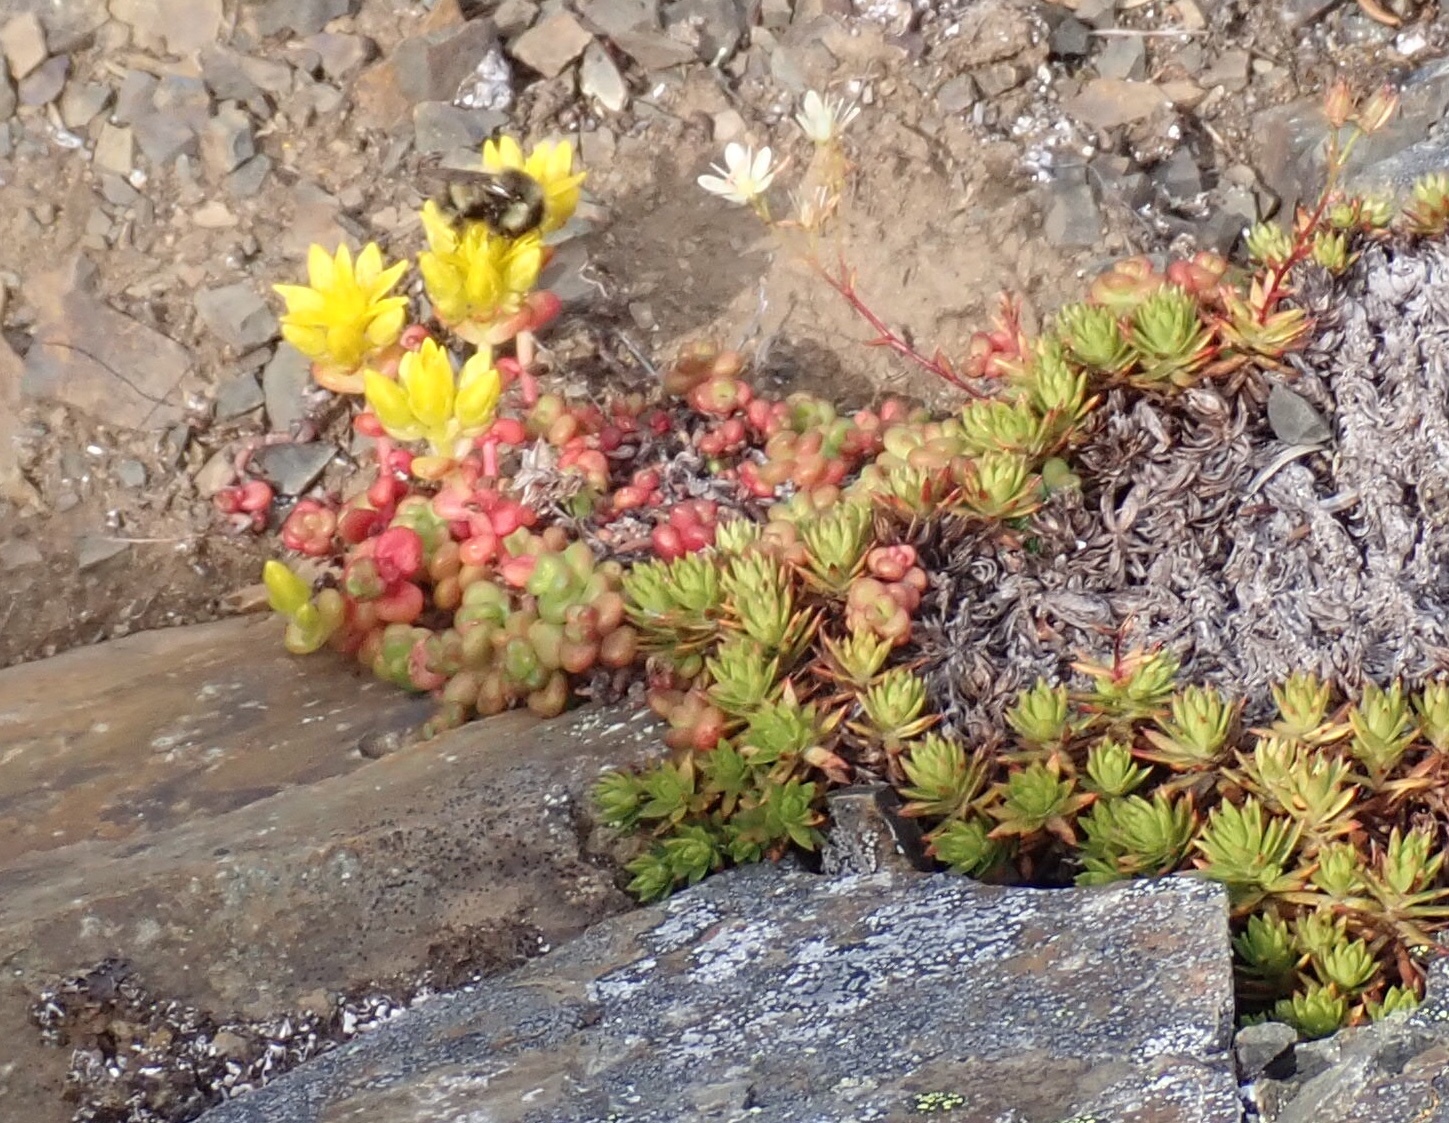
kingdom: Plantae
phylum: Tracheophyta
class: Magnoliopsida
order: Saxifragales
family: Crassulaceae
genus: Sedum
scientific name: Sedum divergens
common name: Cascade stonecrop
